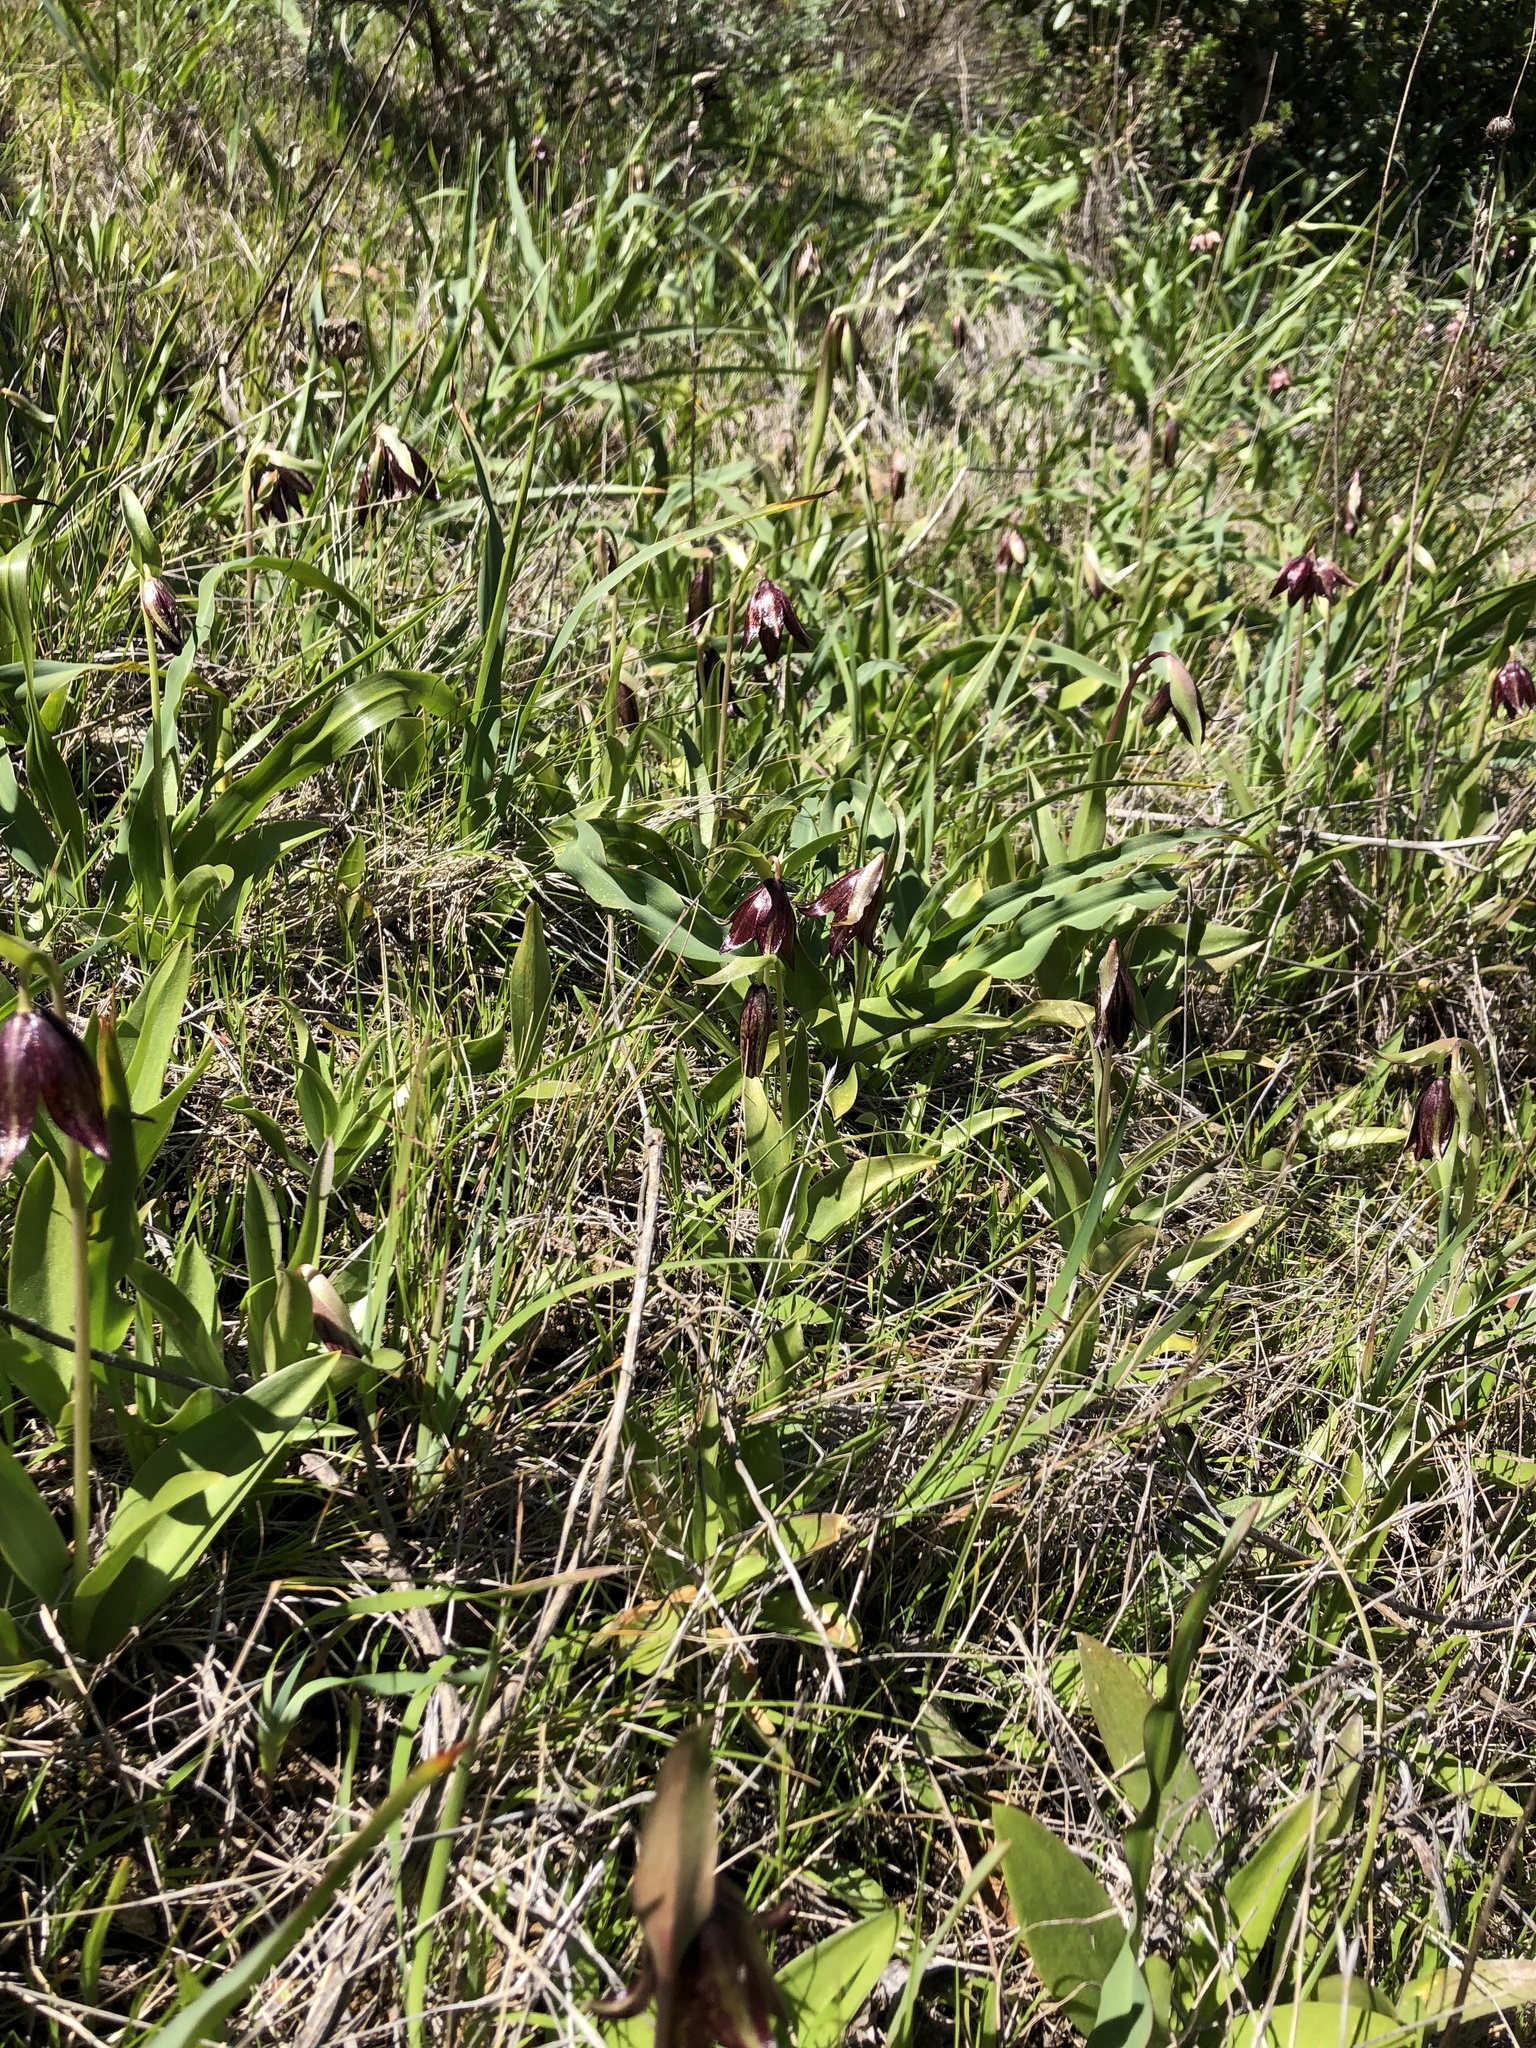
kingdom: Plantae
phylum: Tracheophyta
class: Liliopsida
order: Liliales
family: Liliaceae
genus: Fritillaria
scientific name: Fritillaria biflora
